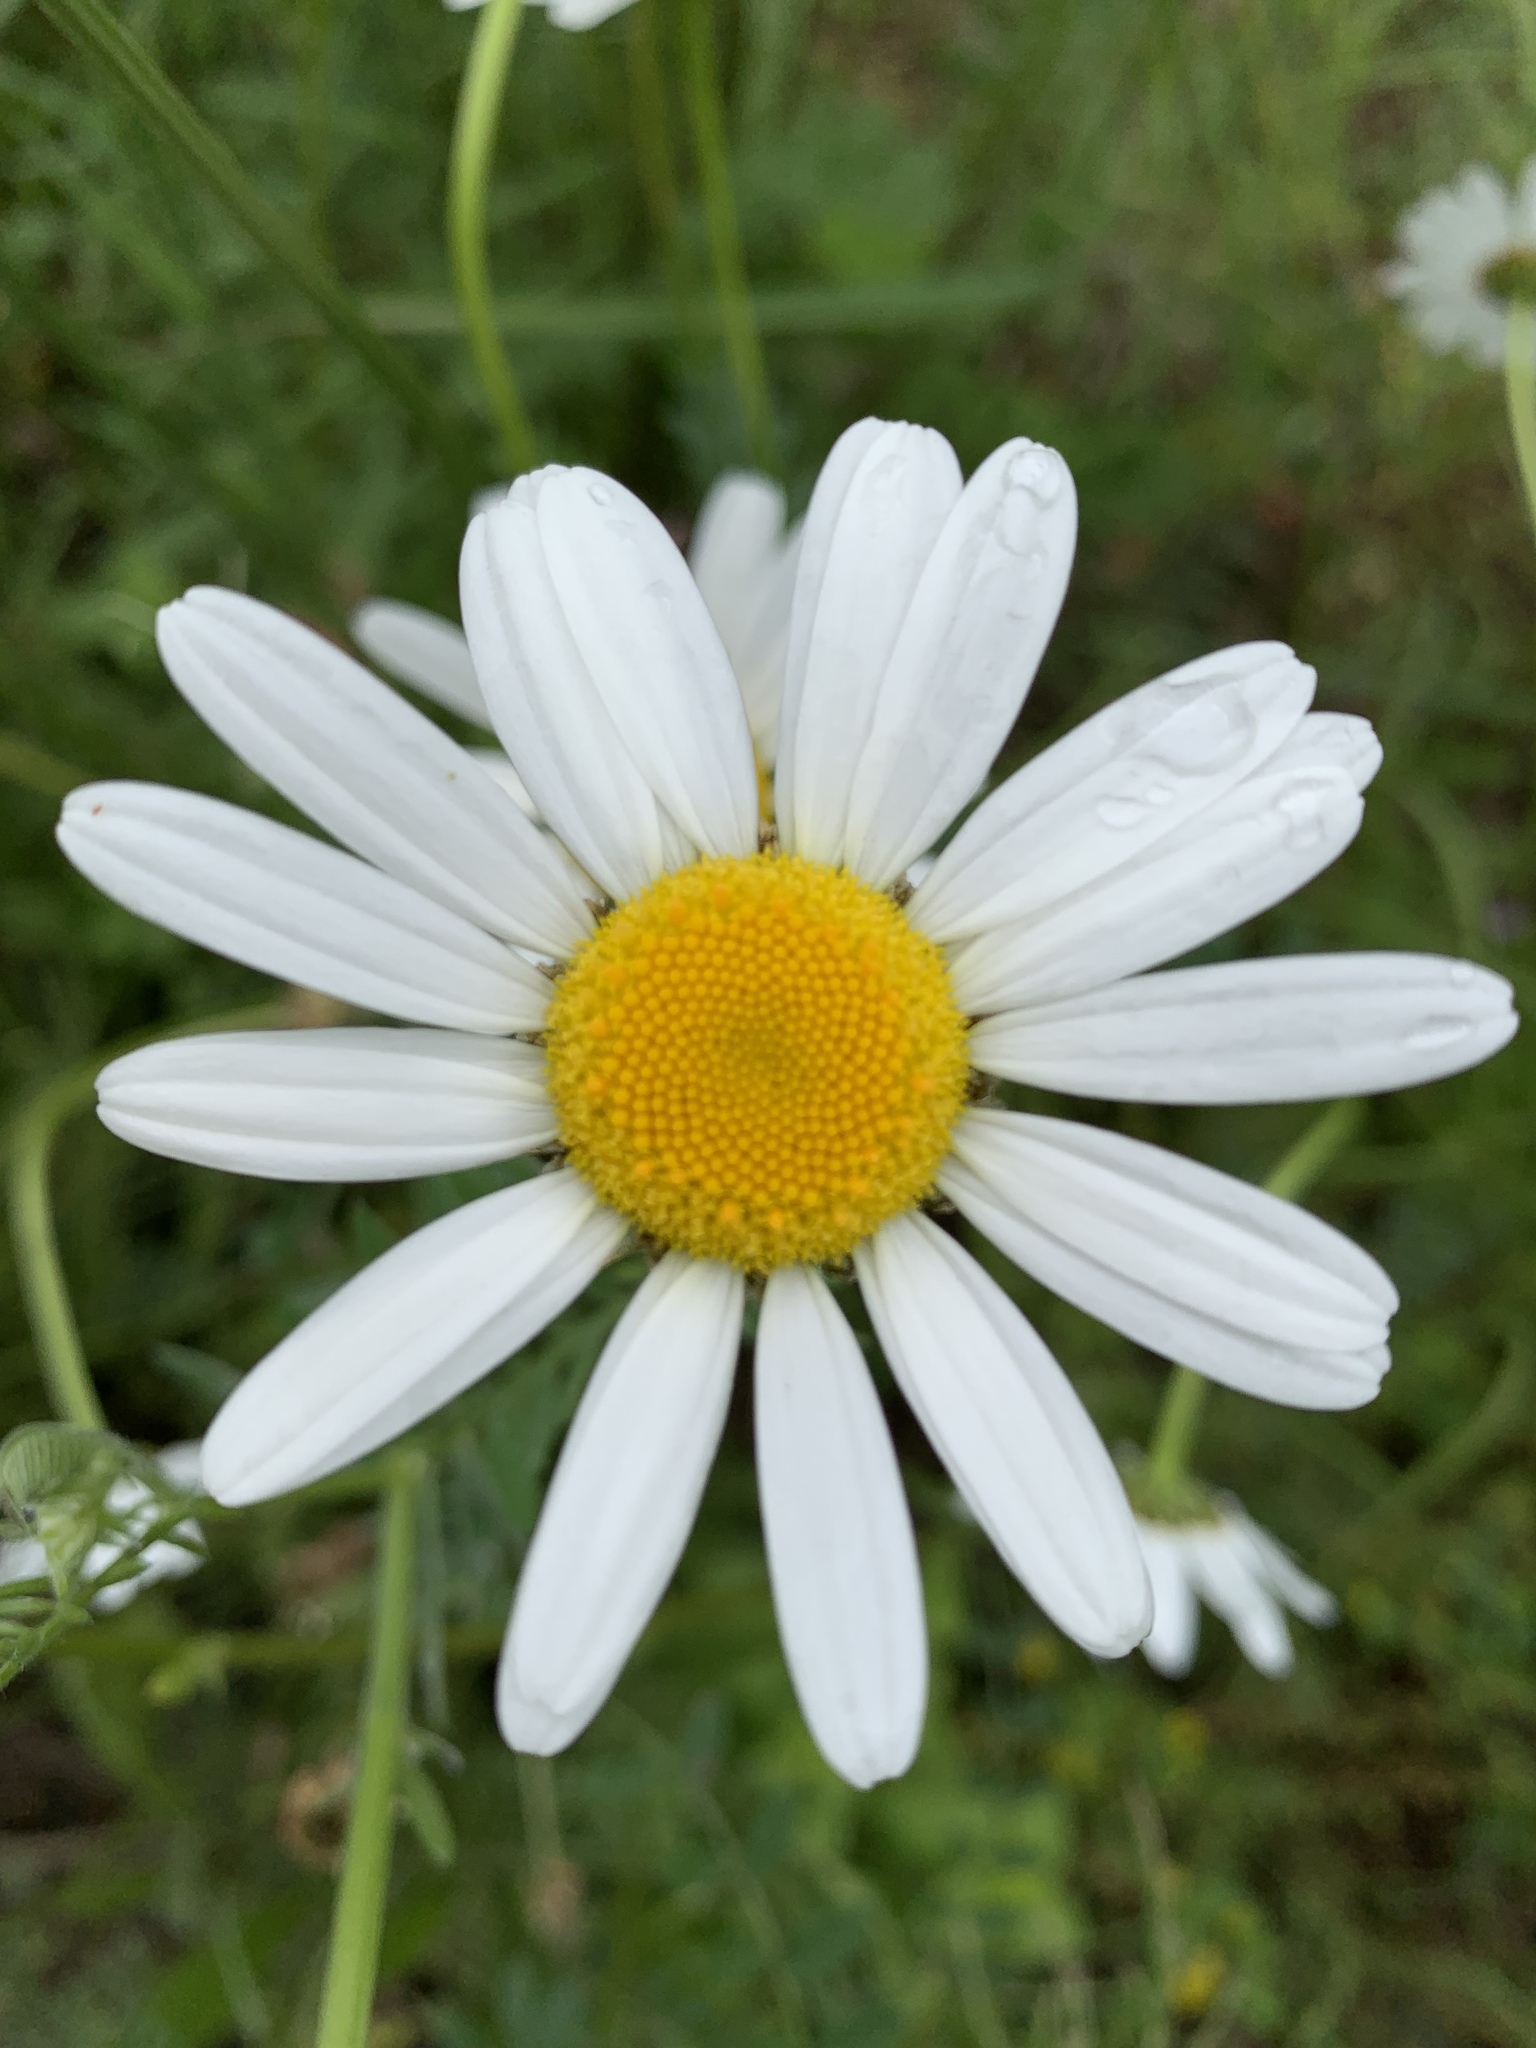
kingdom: Plantae
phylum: Tracheophyta
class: Magnoliopsida
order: Asterales
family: Asteraceae
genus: Leucanthemum
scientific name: Leucanthemum vulgare
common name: Oxeye daisy
